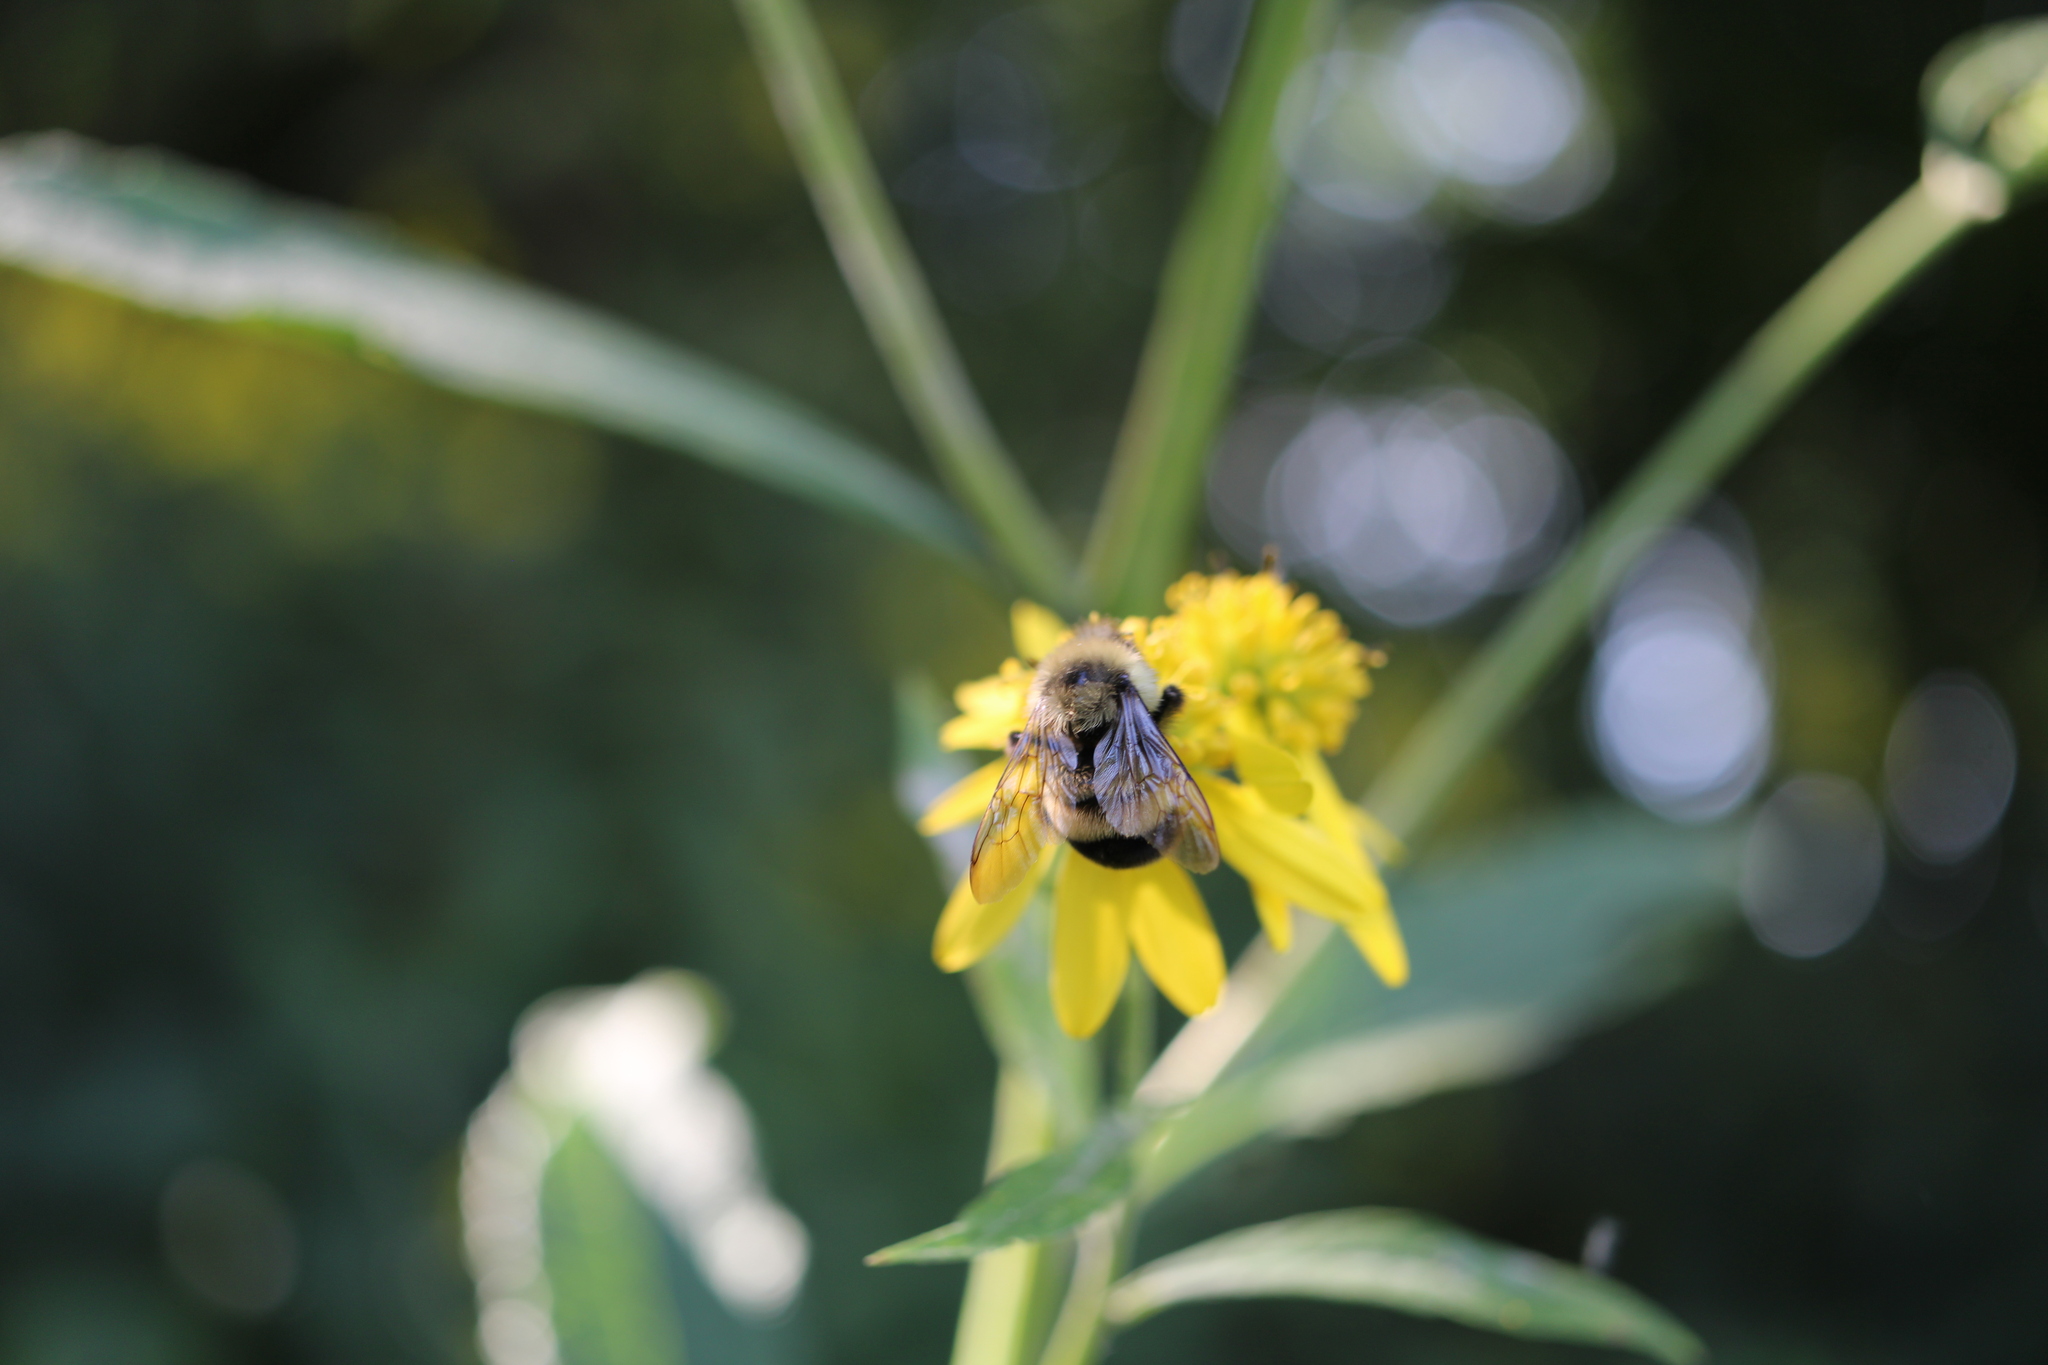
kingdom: Animalia
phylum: Arthropoda
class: Insecta
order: Hymenoptera
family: Apidae
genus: Bombus
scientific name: Bombus affinis
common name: Rusty patched bumble bee
